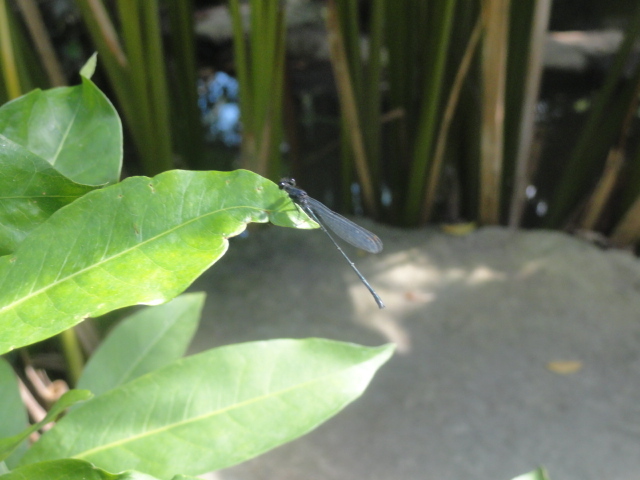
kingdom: Animalia
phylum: Arthropoda
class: Insecta
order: Odonata
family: Platycnemididae
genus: Onychargia
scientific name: Onychargia atrocyana
